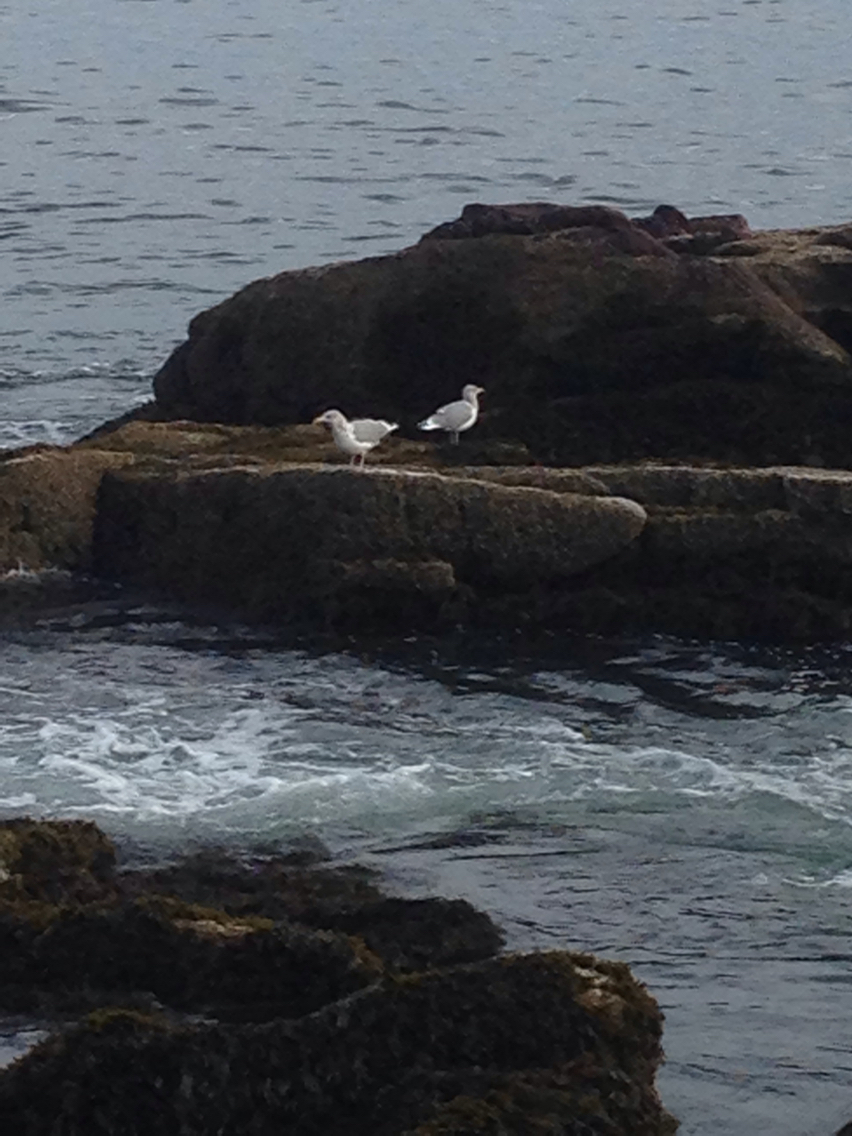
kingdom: Animalia
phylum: Chordata
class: Aves
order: Charadriiformes
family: Laridae
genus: Larus
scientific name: Larus argentatus
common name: Herring gull
